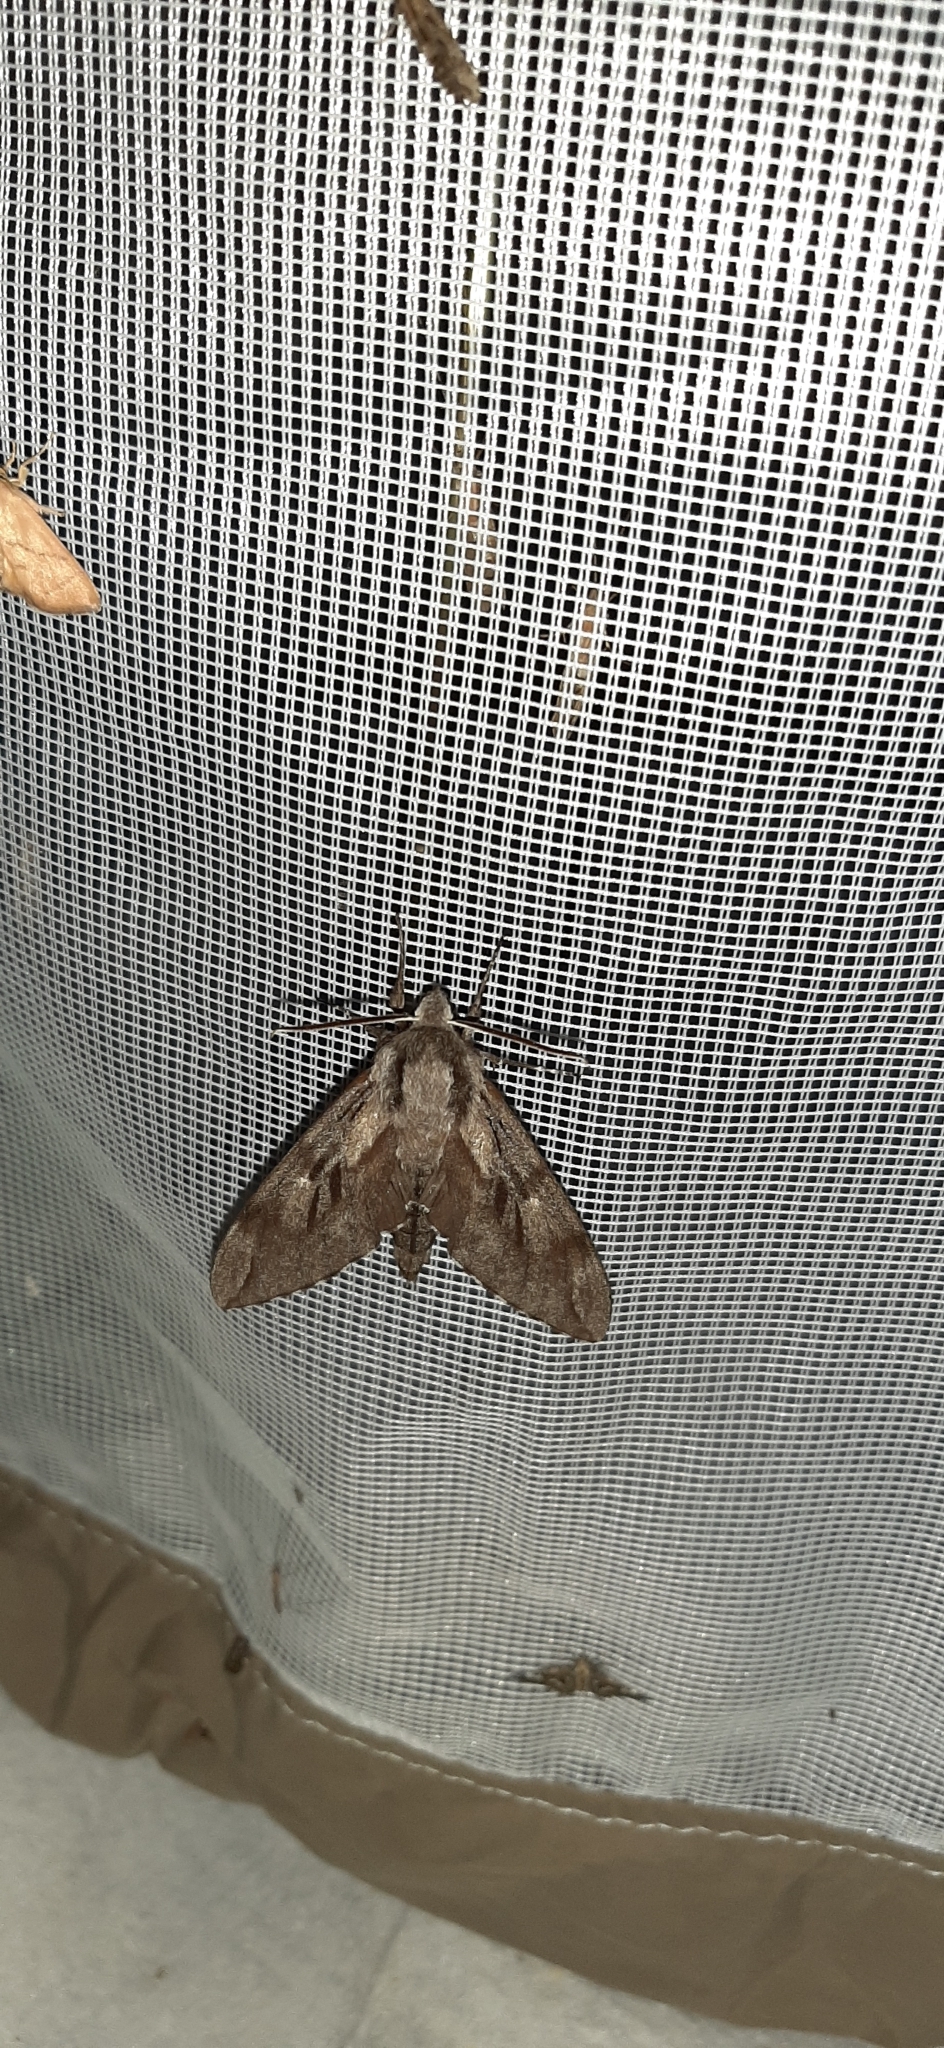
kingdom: Animalia
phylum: Arthropoda
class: Insecta
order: Lepidoptera
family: Sphingidae
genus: Sphinx
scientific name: Sphinx pinastri
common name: Pine hawk-moth
